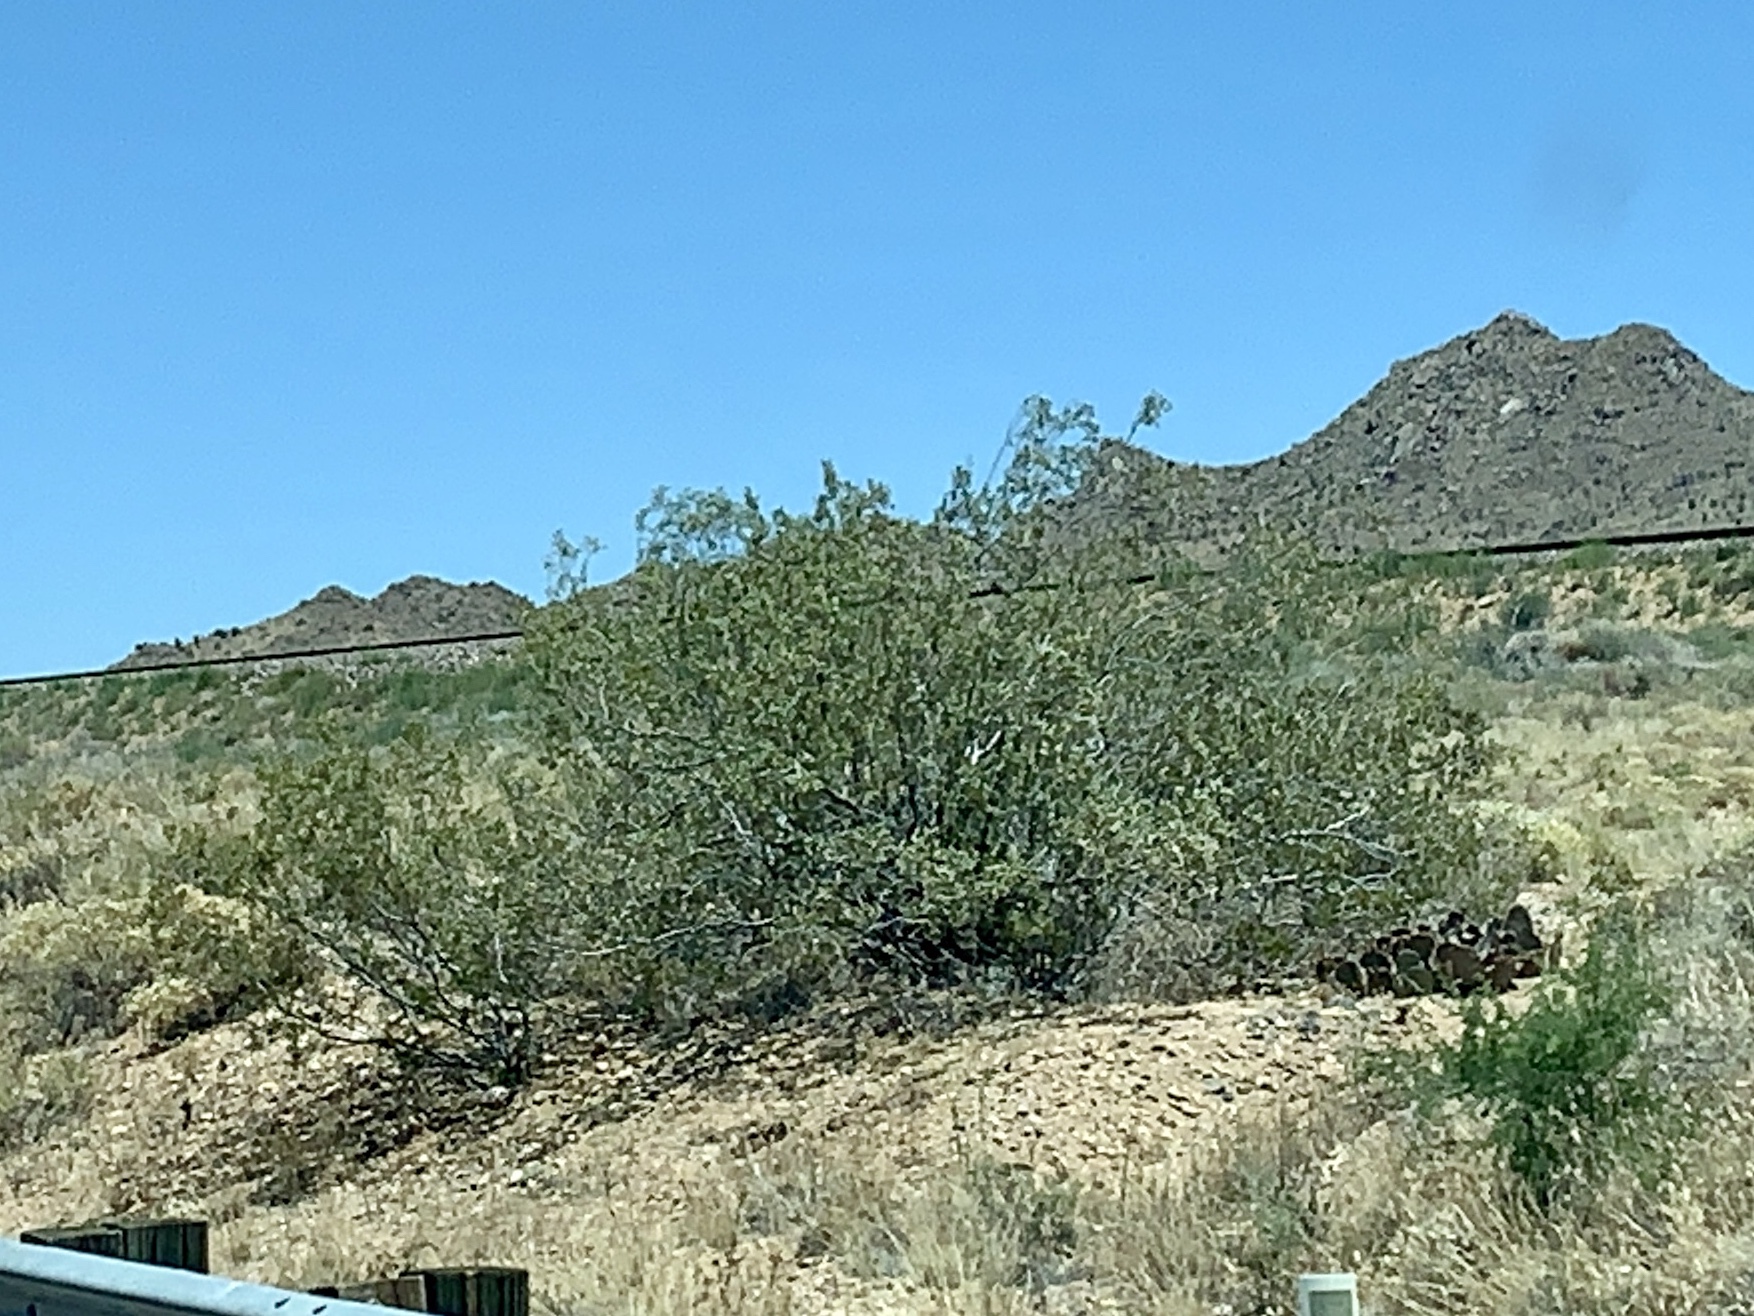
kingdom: Plantae
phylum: Tracheophyta
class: Magnoliopsida
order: Zygophyllales
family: Zygophyllaceae
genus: Larrea
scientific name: Larrea tridentata
